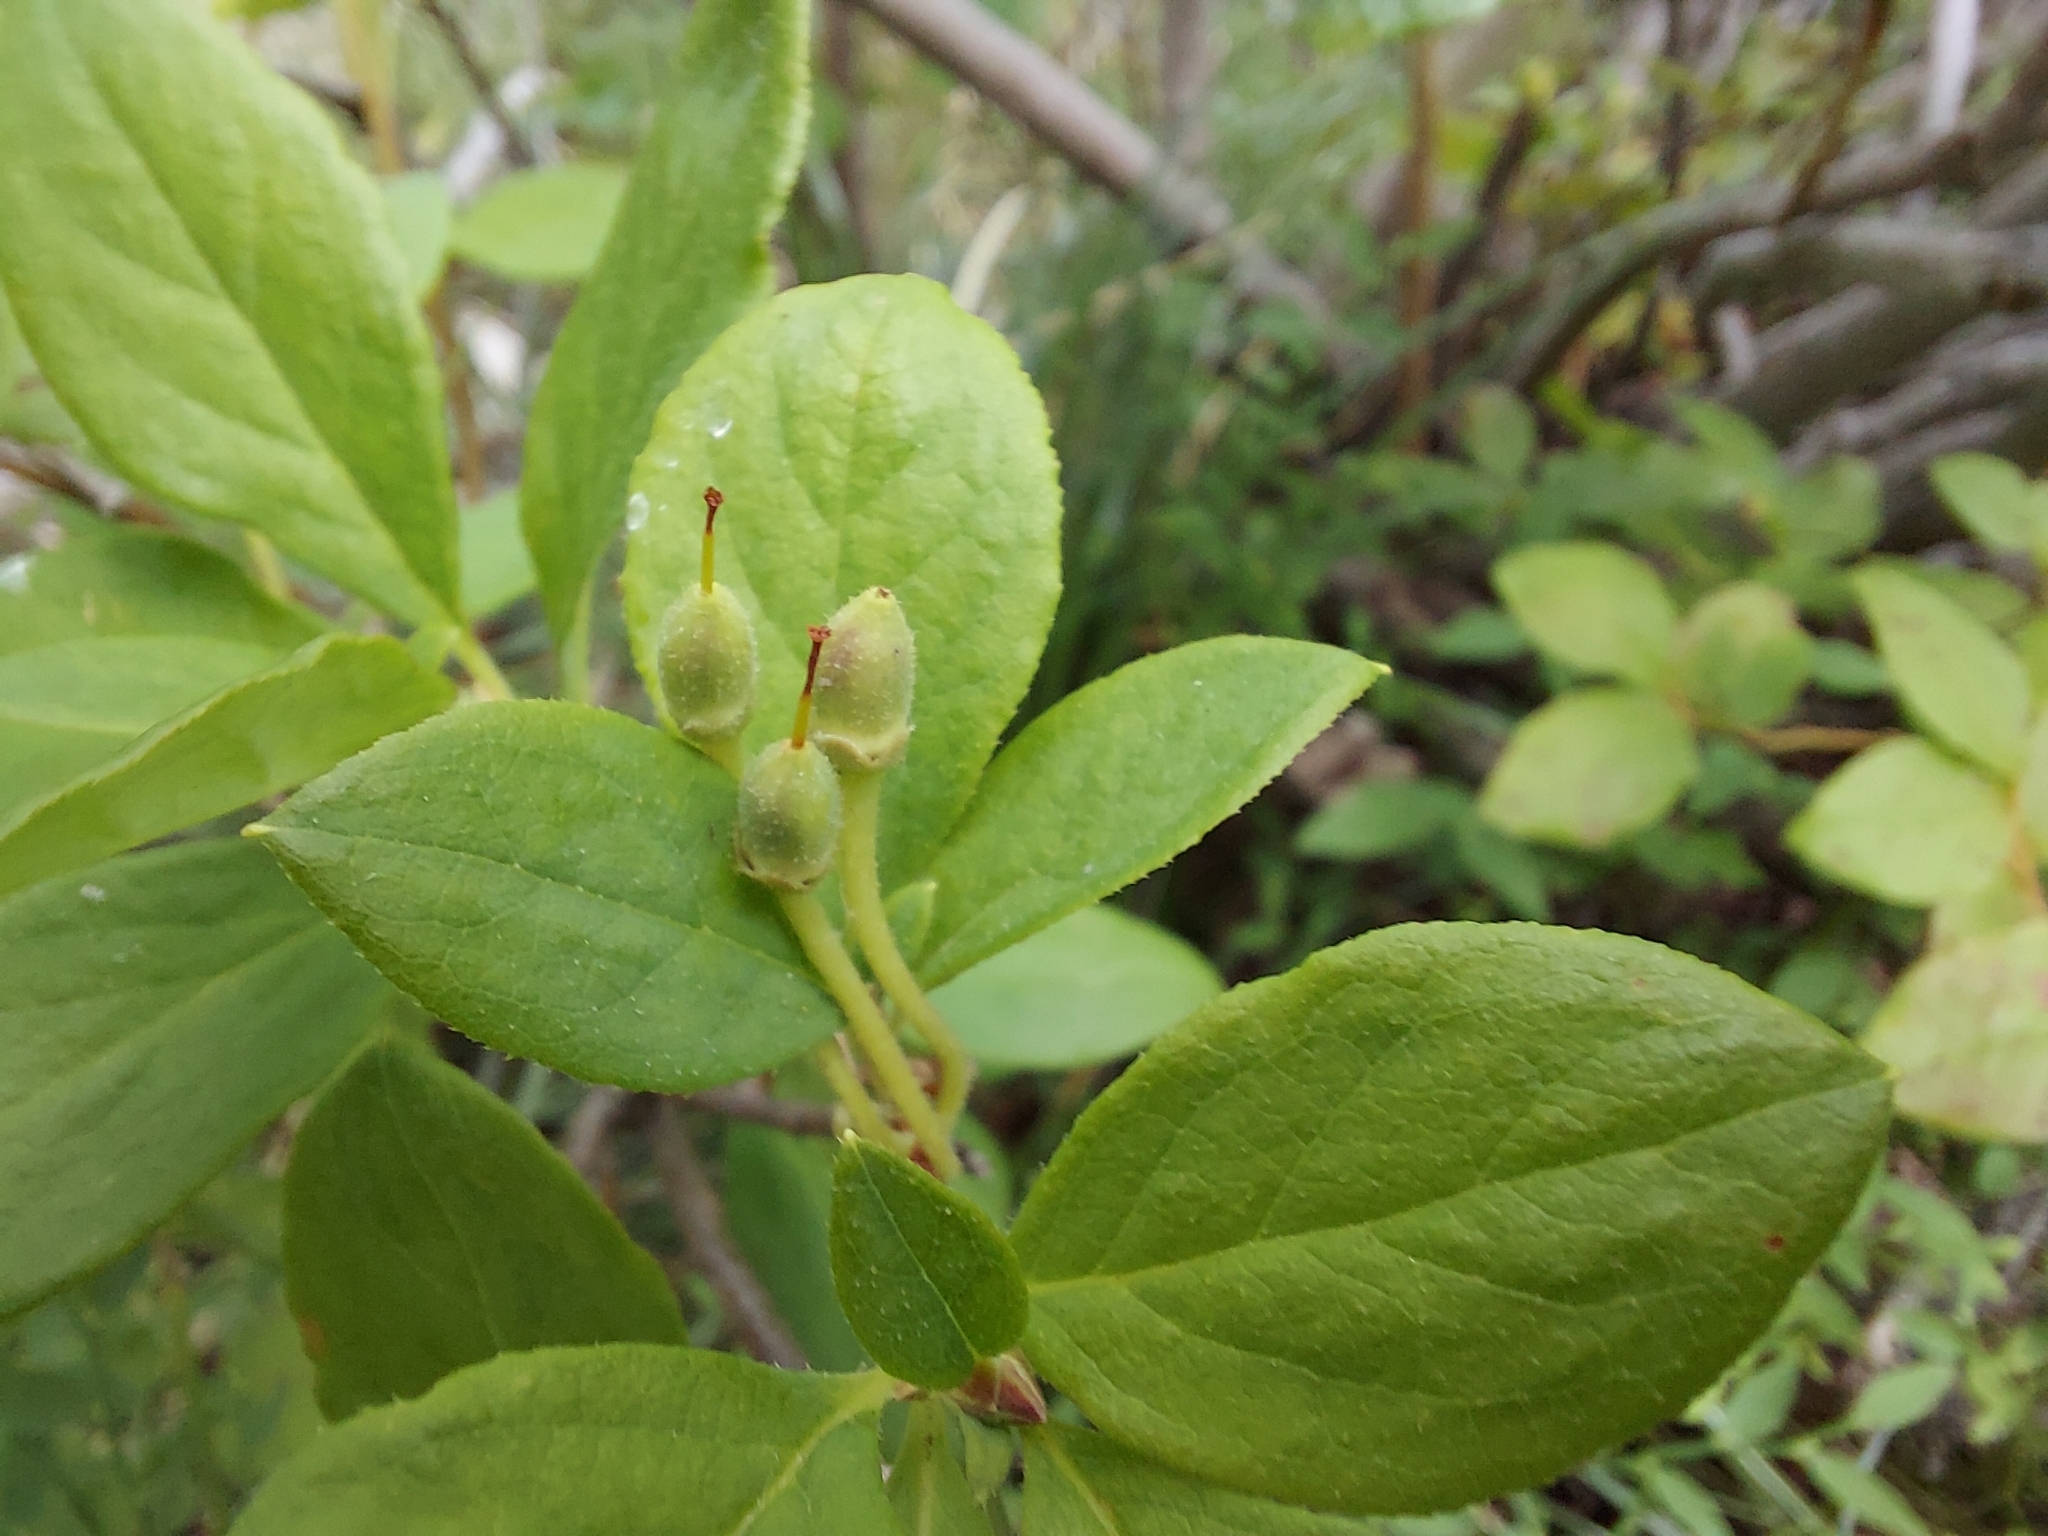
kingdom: Plantae
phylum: Tracheophyta
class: Magnoliopsida
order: Ericales
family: Ericaceae
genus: Rhododendron
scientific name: Rhododendron menziesii
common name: Pacific menziesia
